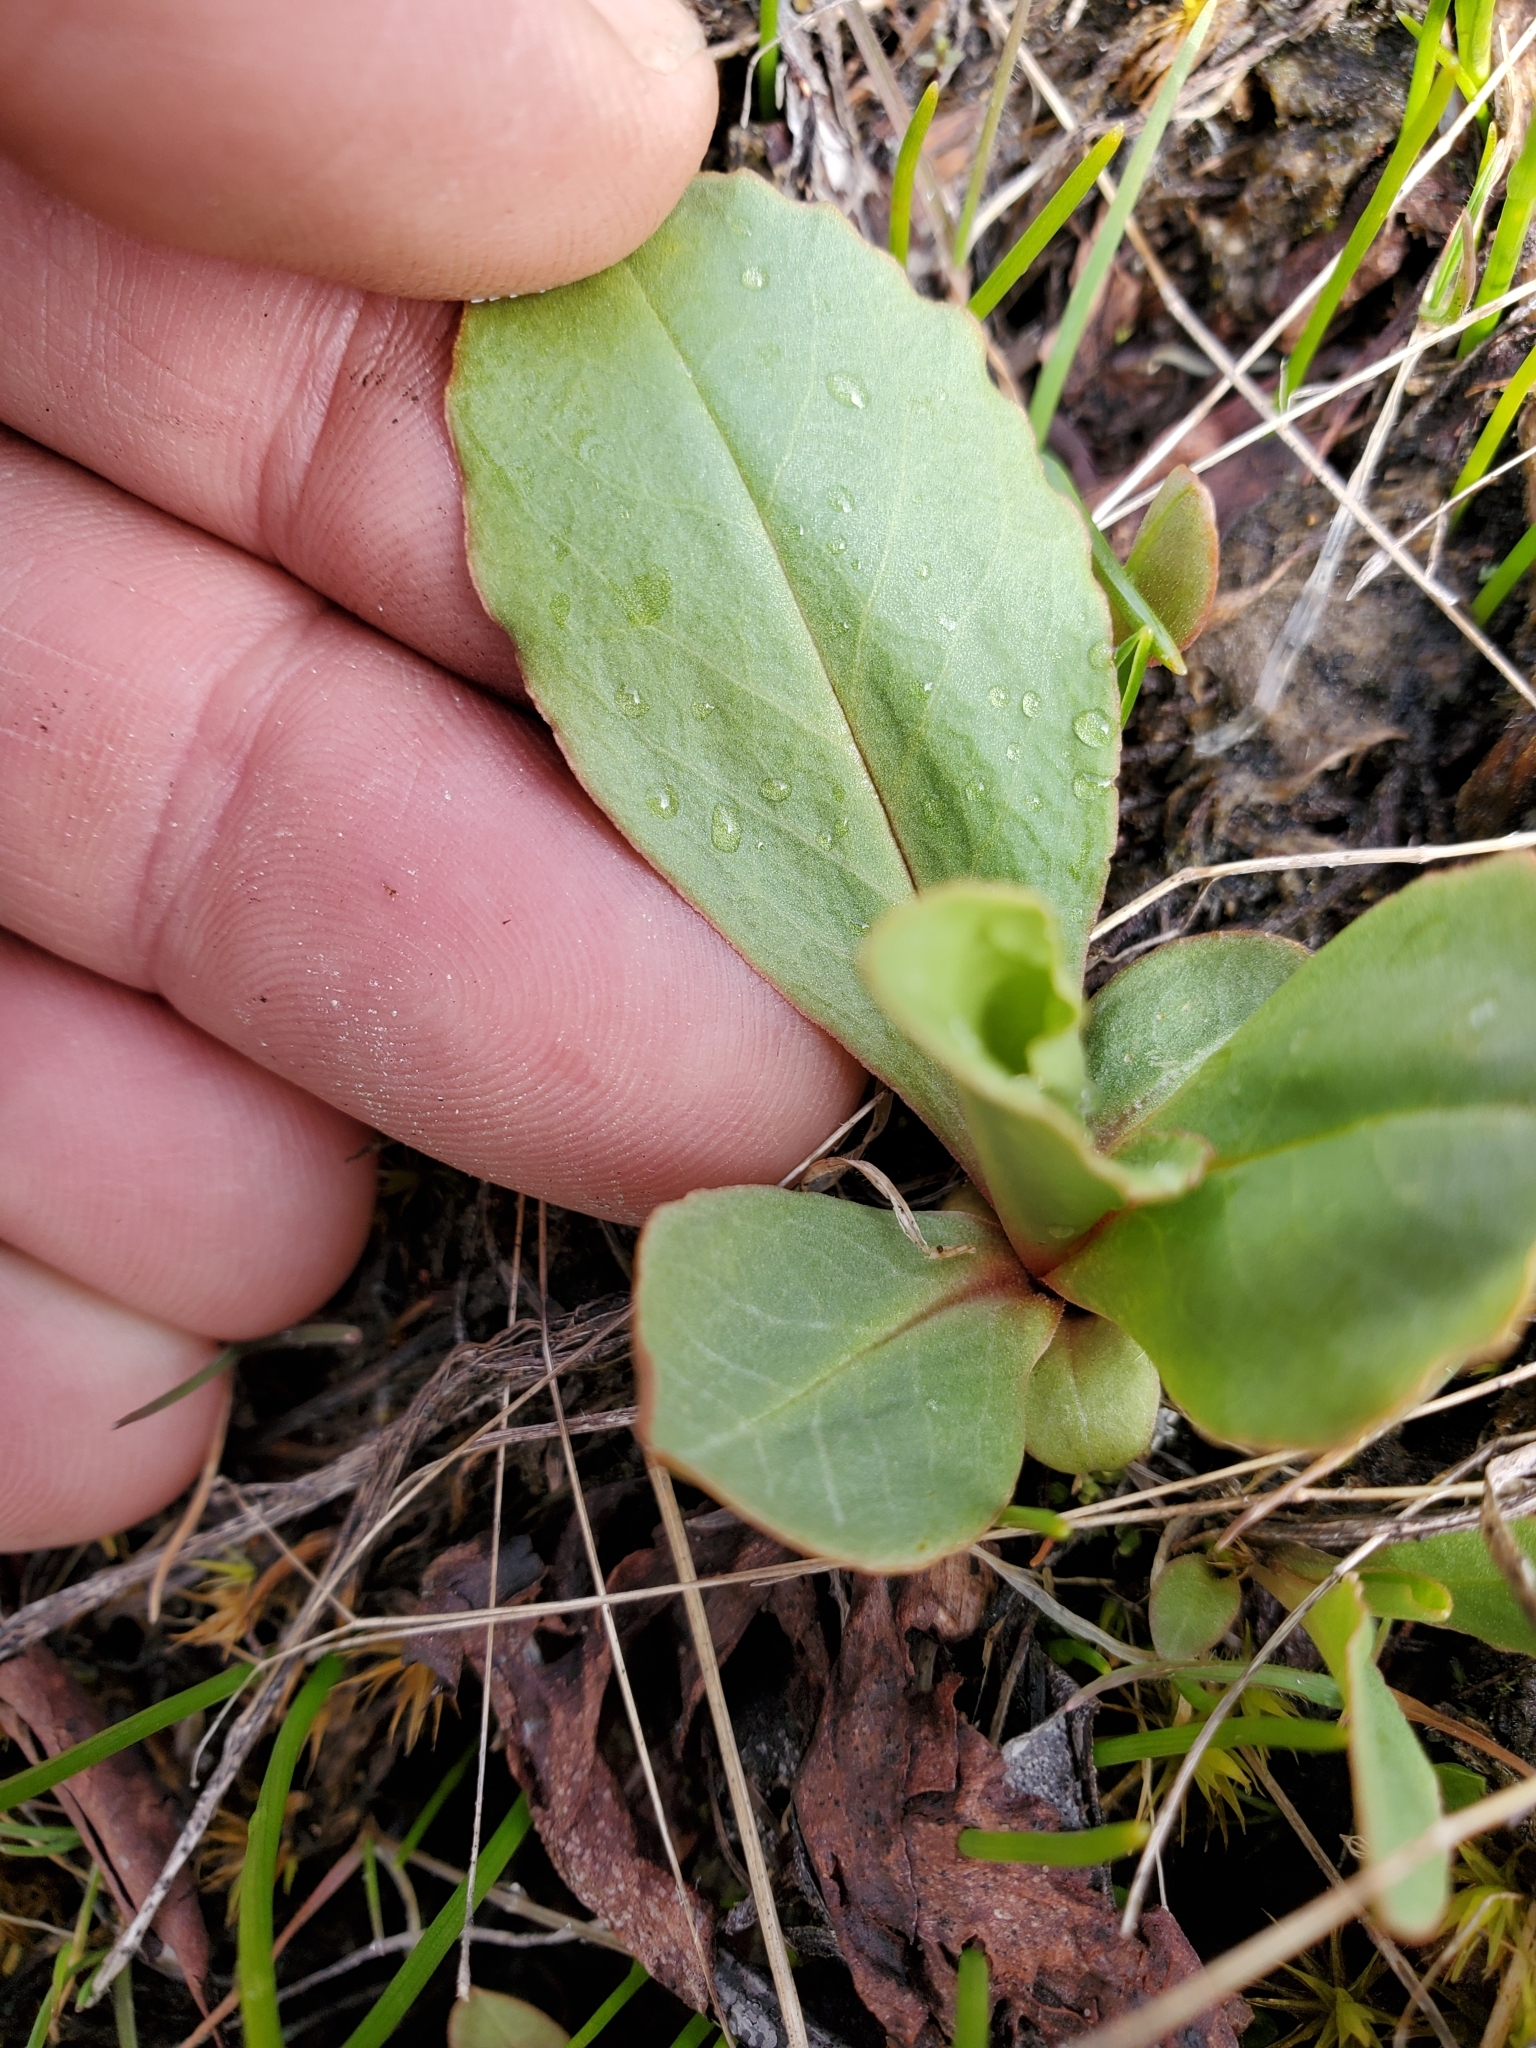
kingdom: Plantae
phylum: Tracheophyta
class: Magnoliopsida
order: Ericales
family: Primulaceae
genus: Dodecatheon
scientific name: Dodecatheon pulchellum
